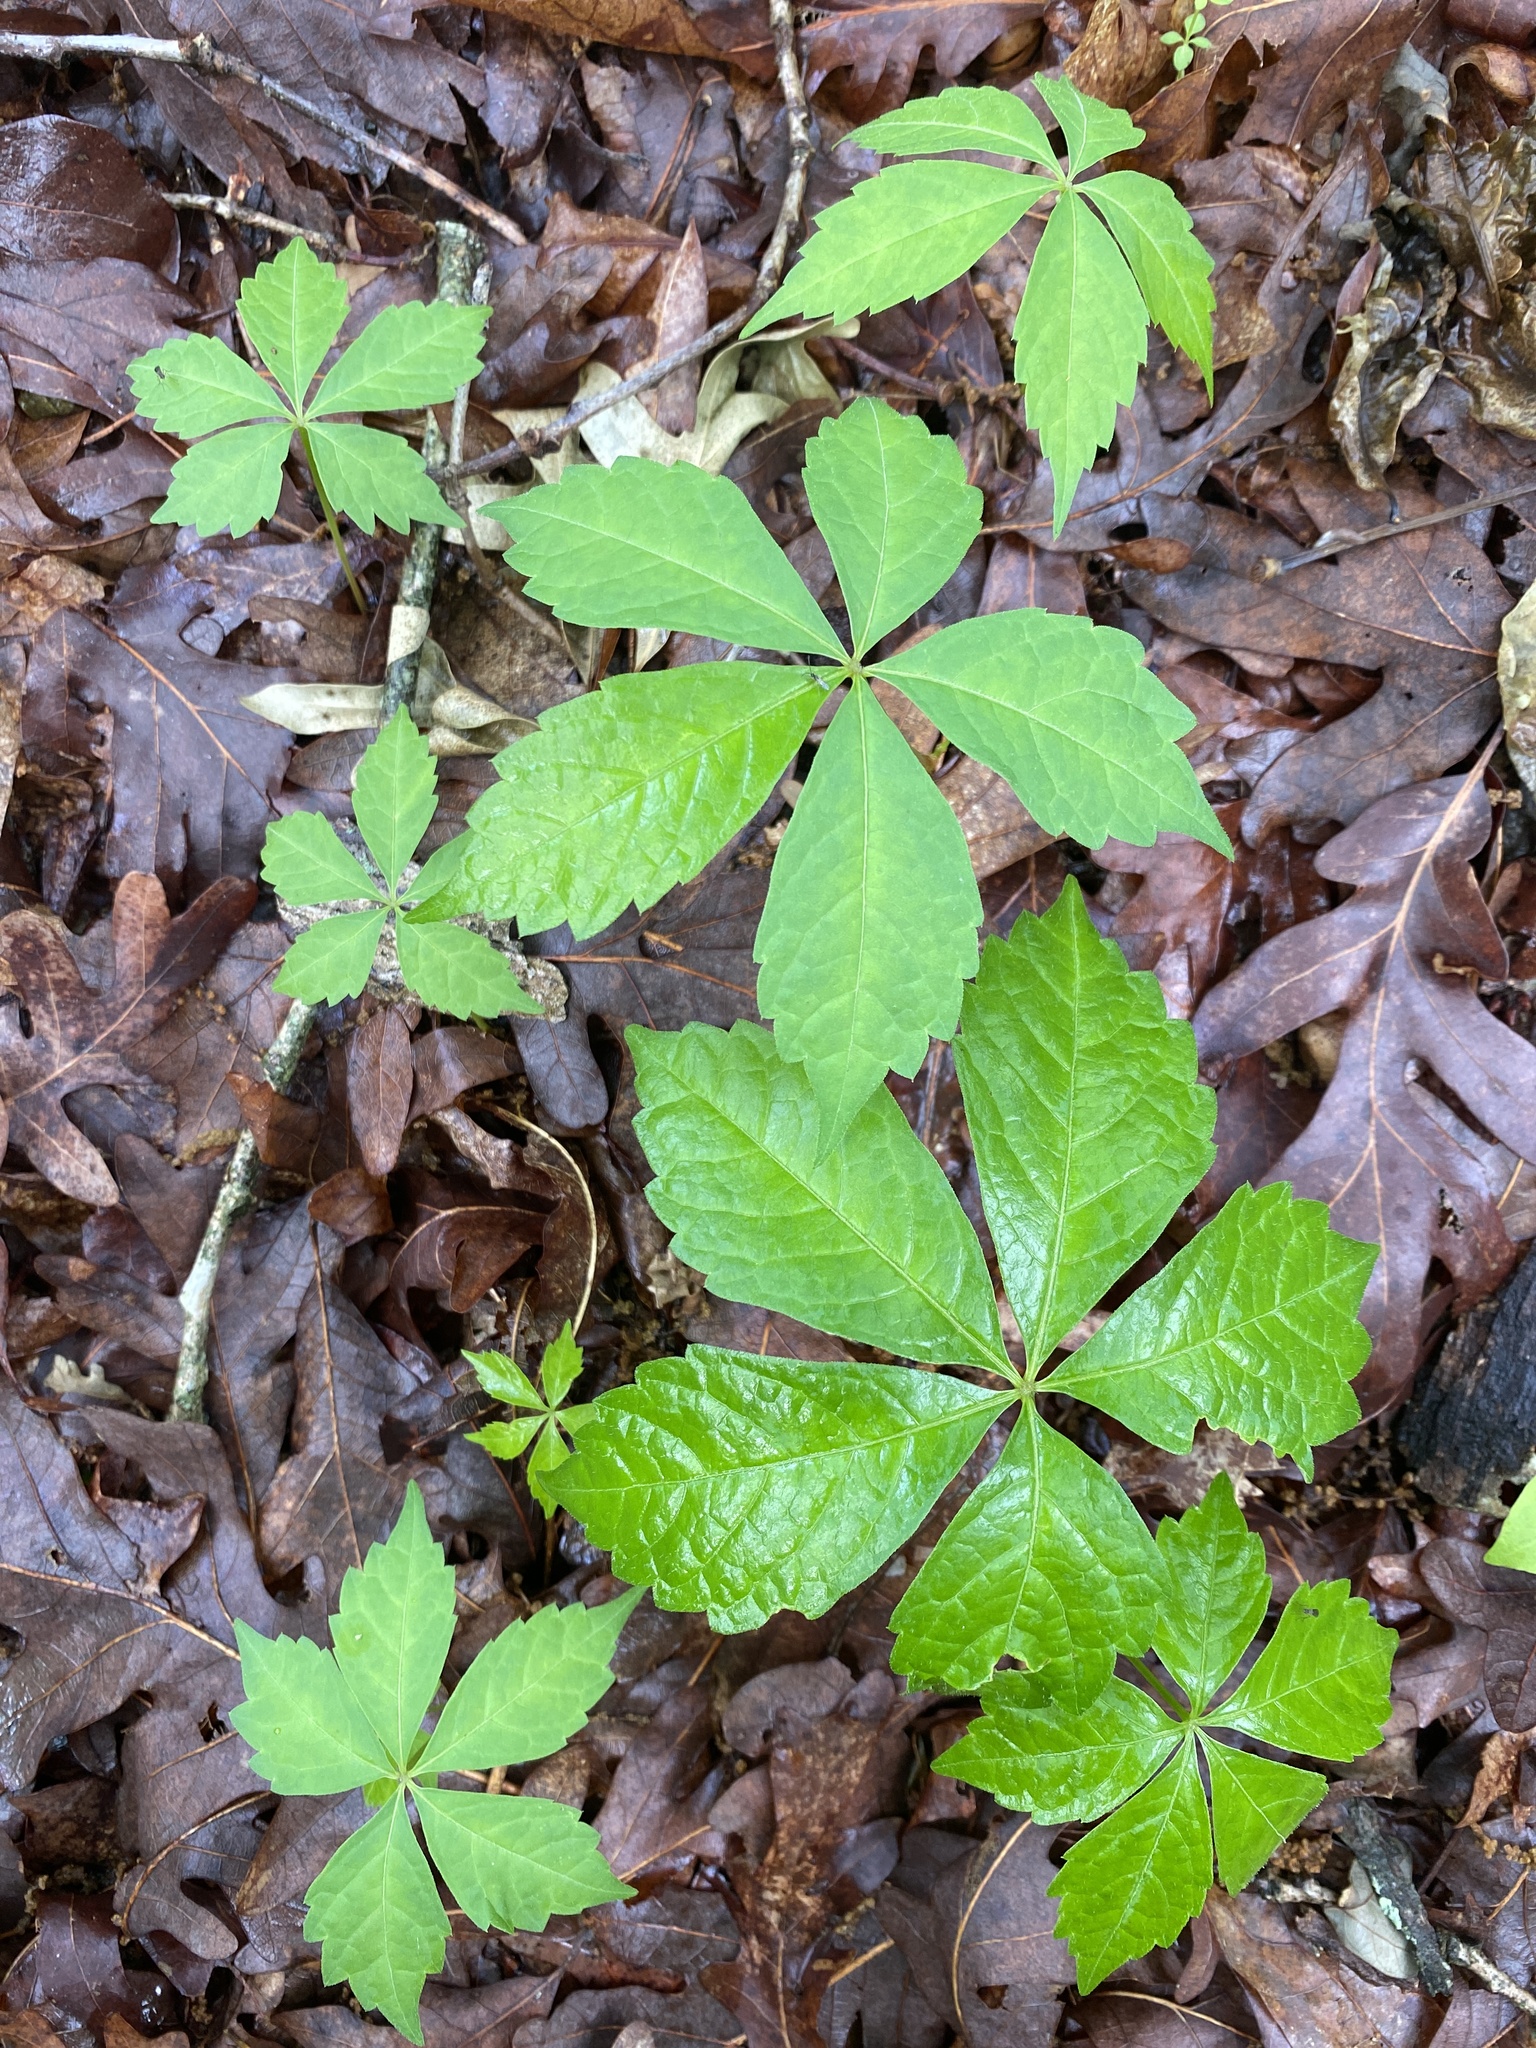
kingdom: Plantae
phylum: Tracheophyta
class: Magnoliopsida
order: Vitales
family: Vitaceae
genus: Parthenocissus
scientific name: Parthenocissus quinquefolia
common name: Virginia-creeper
